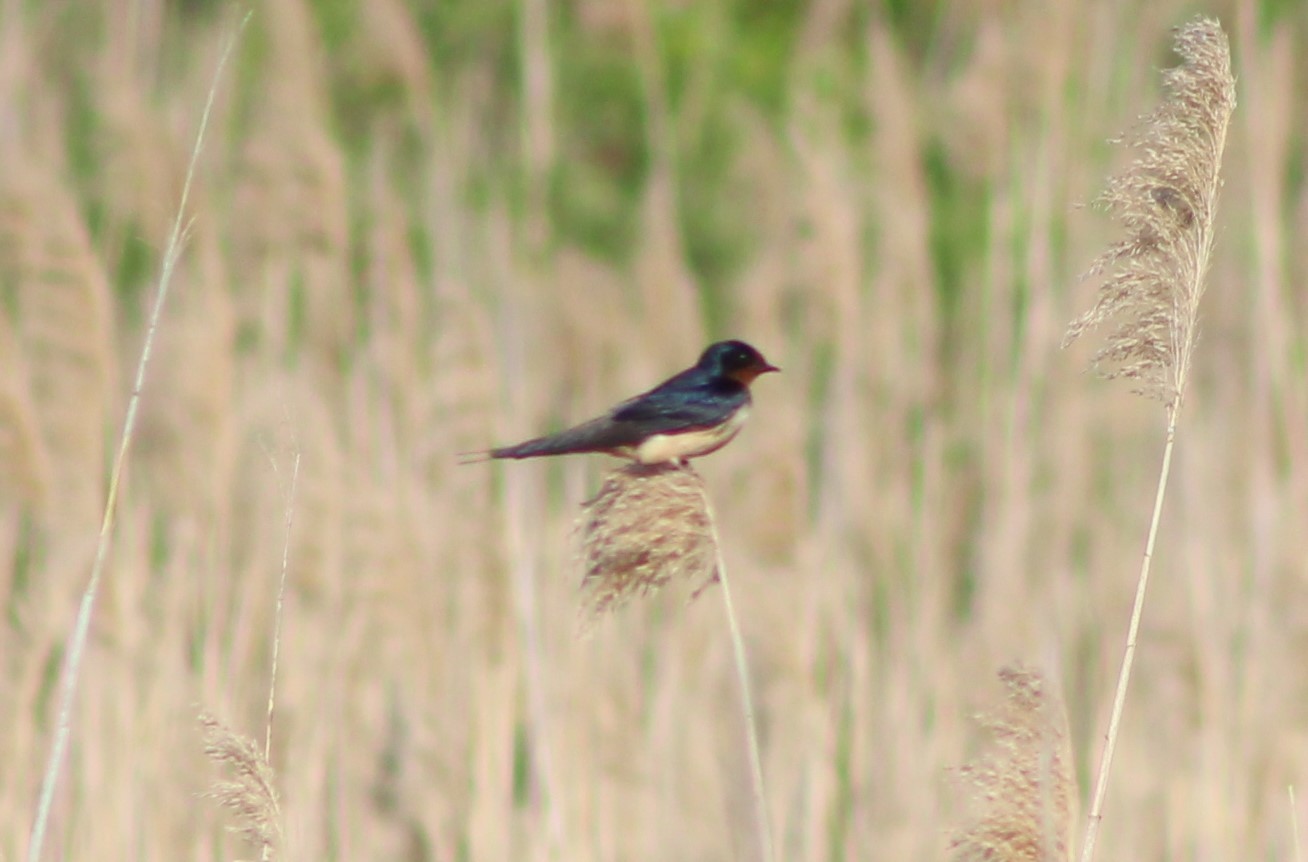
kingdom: Animalia
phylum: Chordata
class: Aves
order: Passeriformes
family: Hirundinidae
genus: Hirundo
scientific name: Hirundo rustica
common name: Barn swallow
